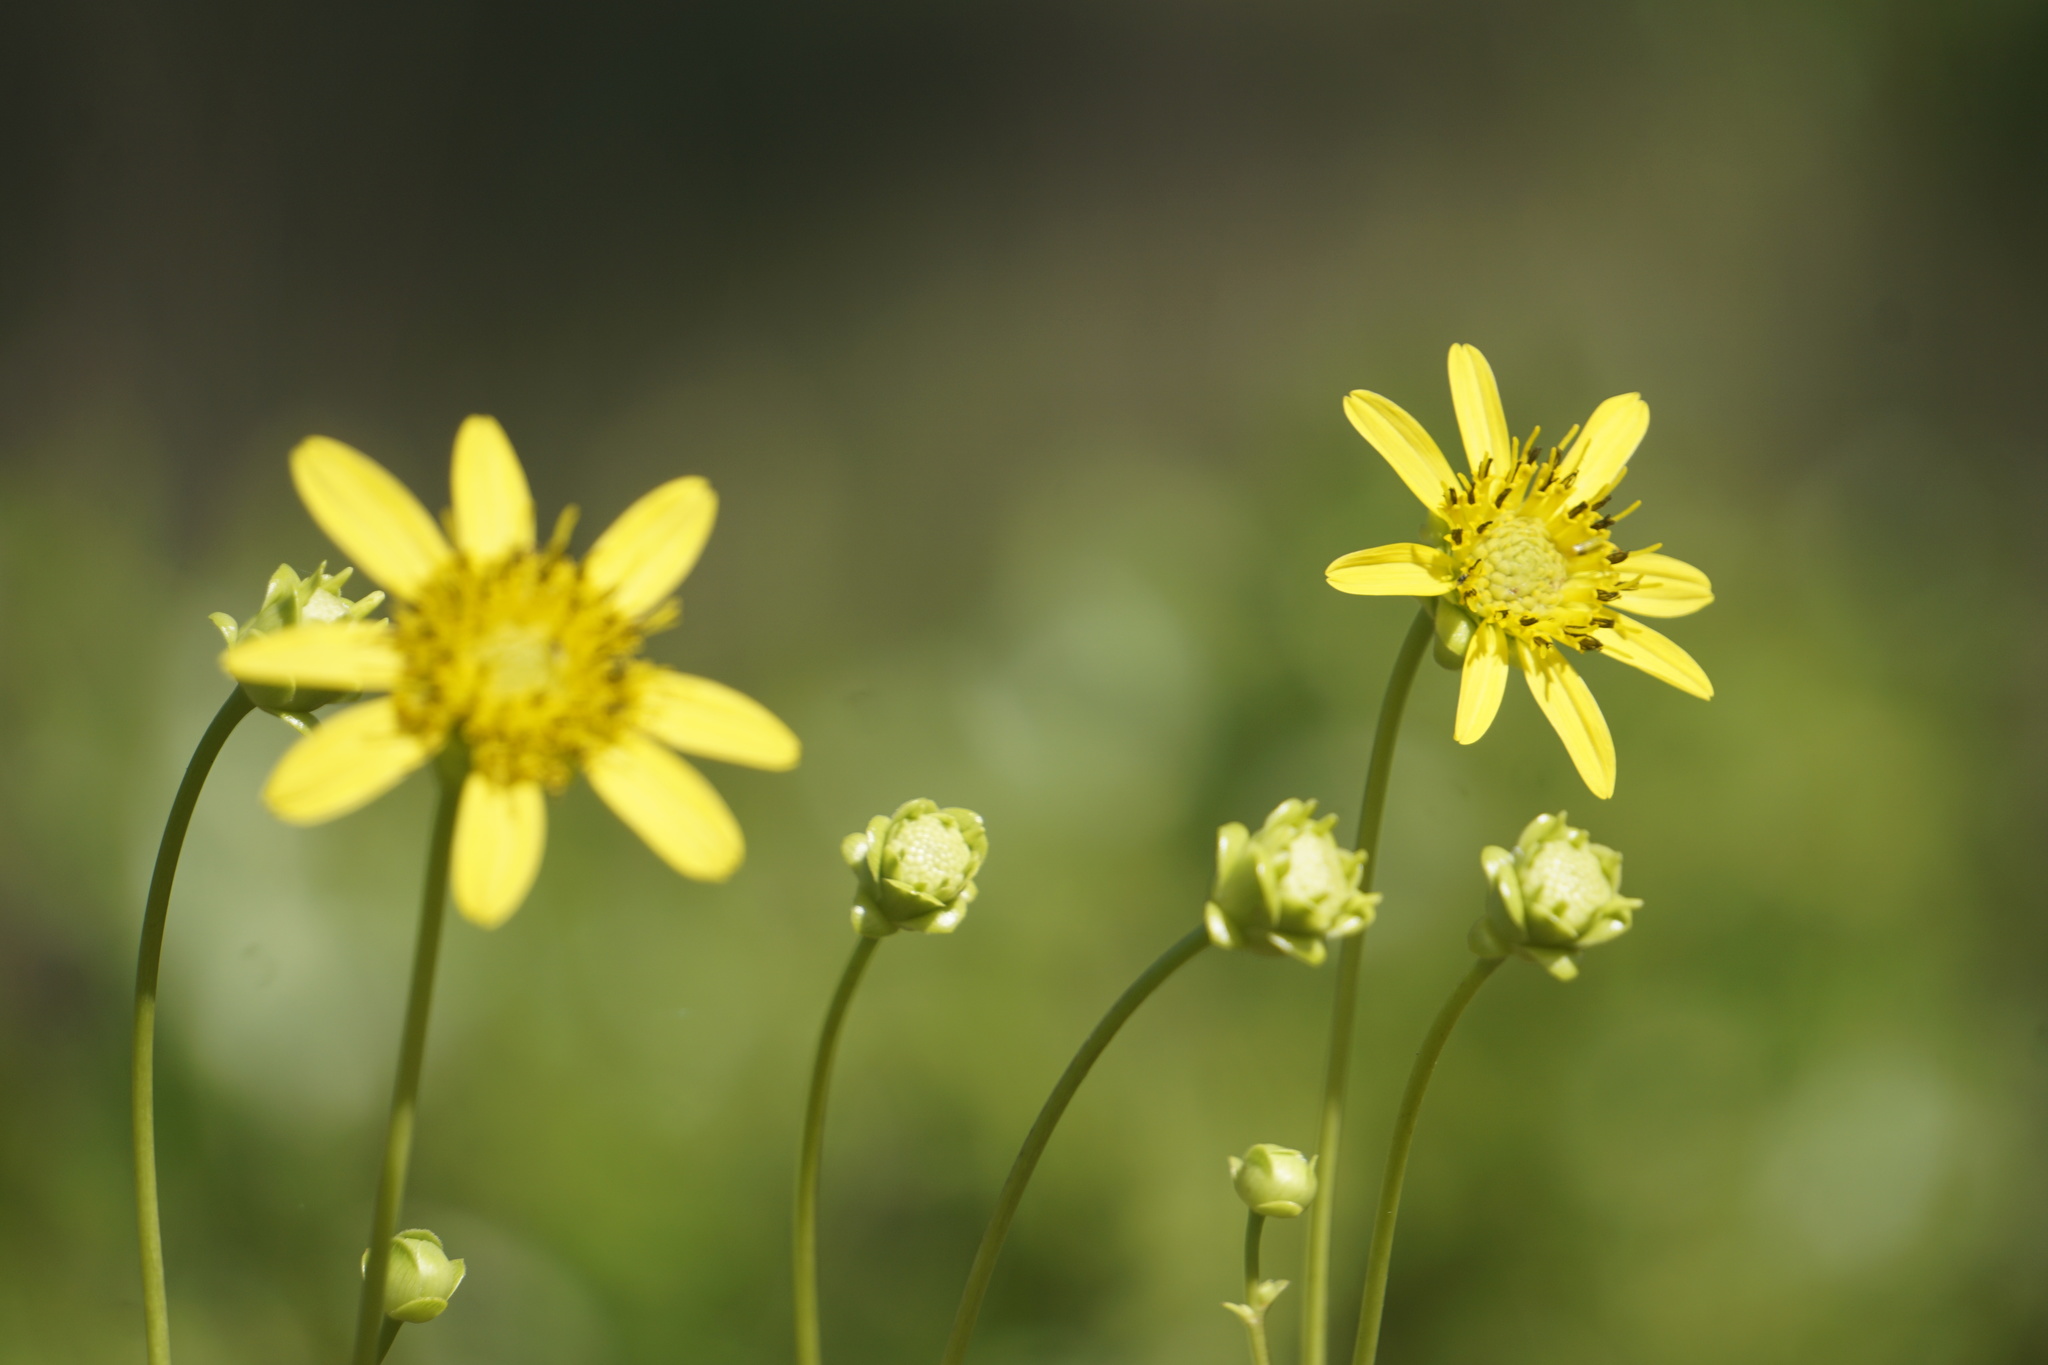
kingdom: Plantae
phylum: Tracheophyta
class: Magnoliopsida
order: Asterales
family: Asteraceae
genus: Silphium
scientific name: Silphium compositum
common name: Lesser basal-leaf rosinweed
